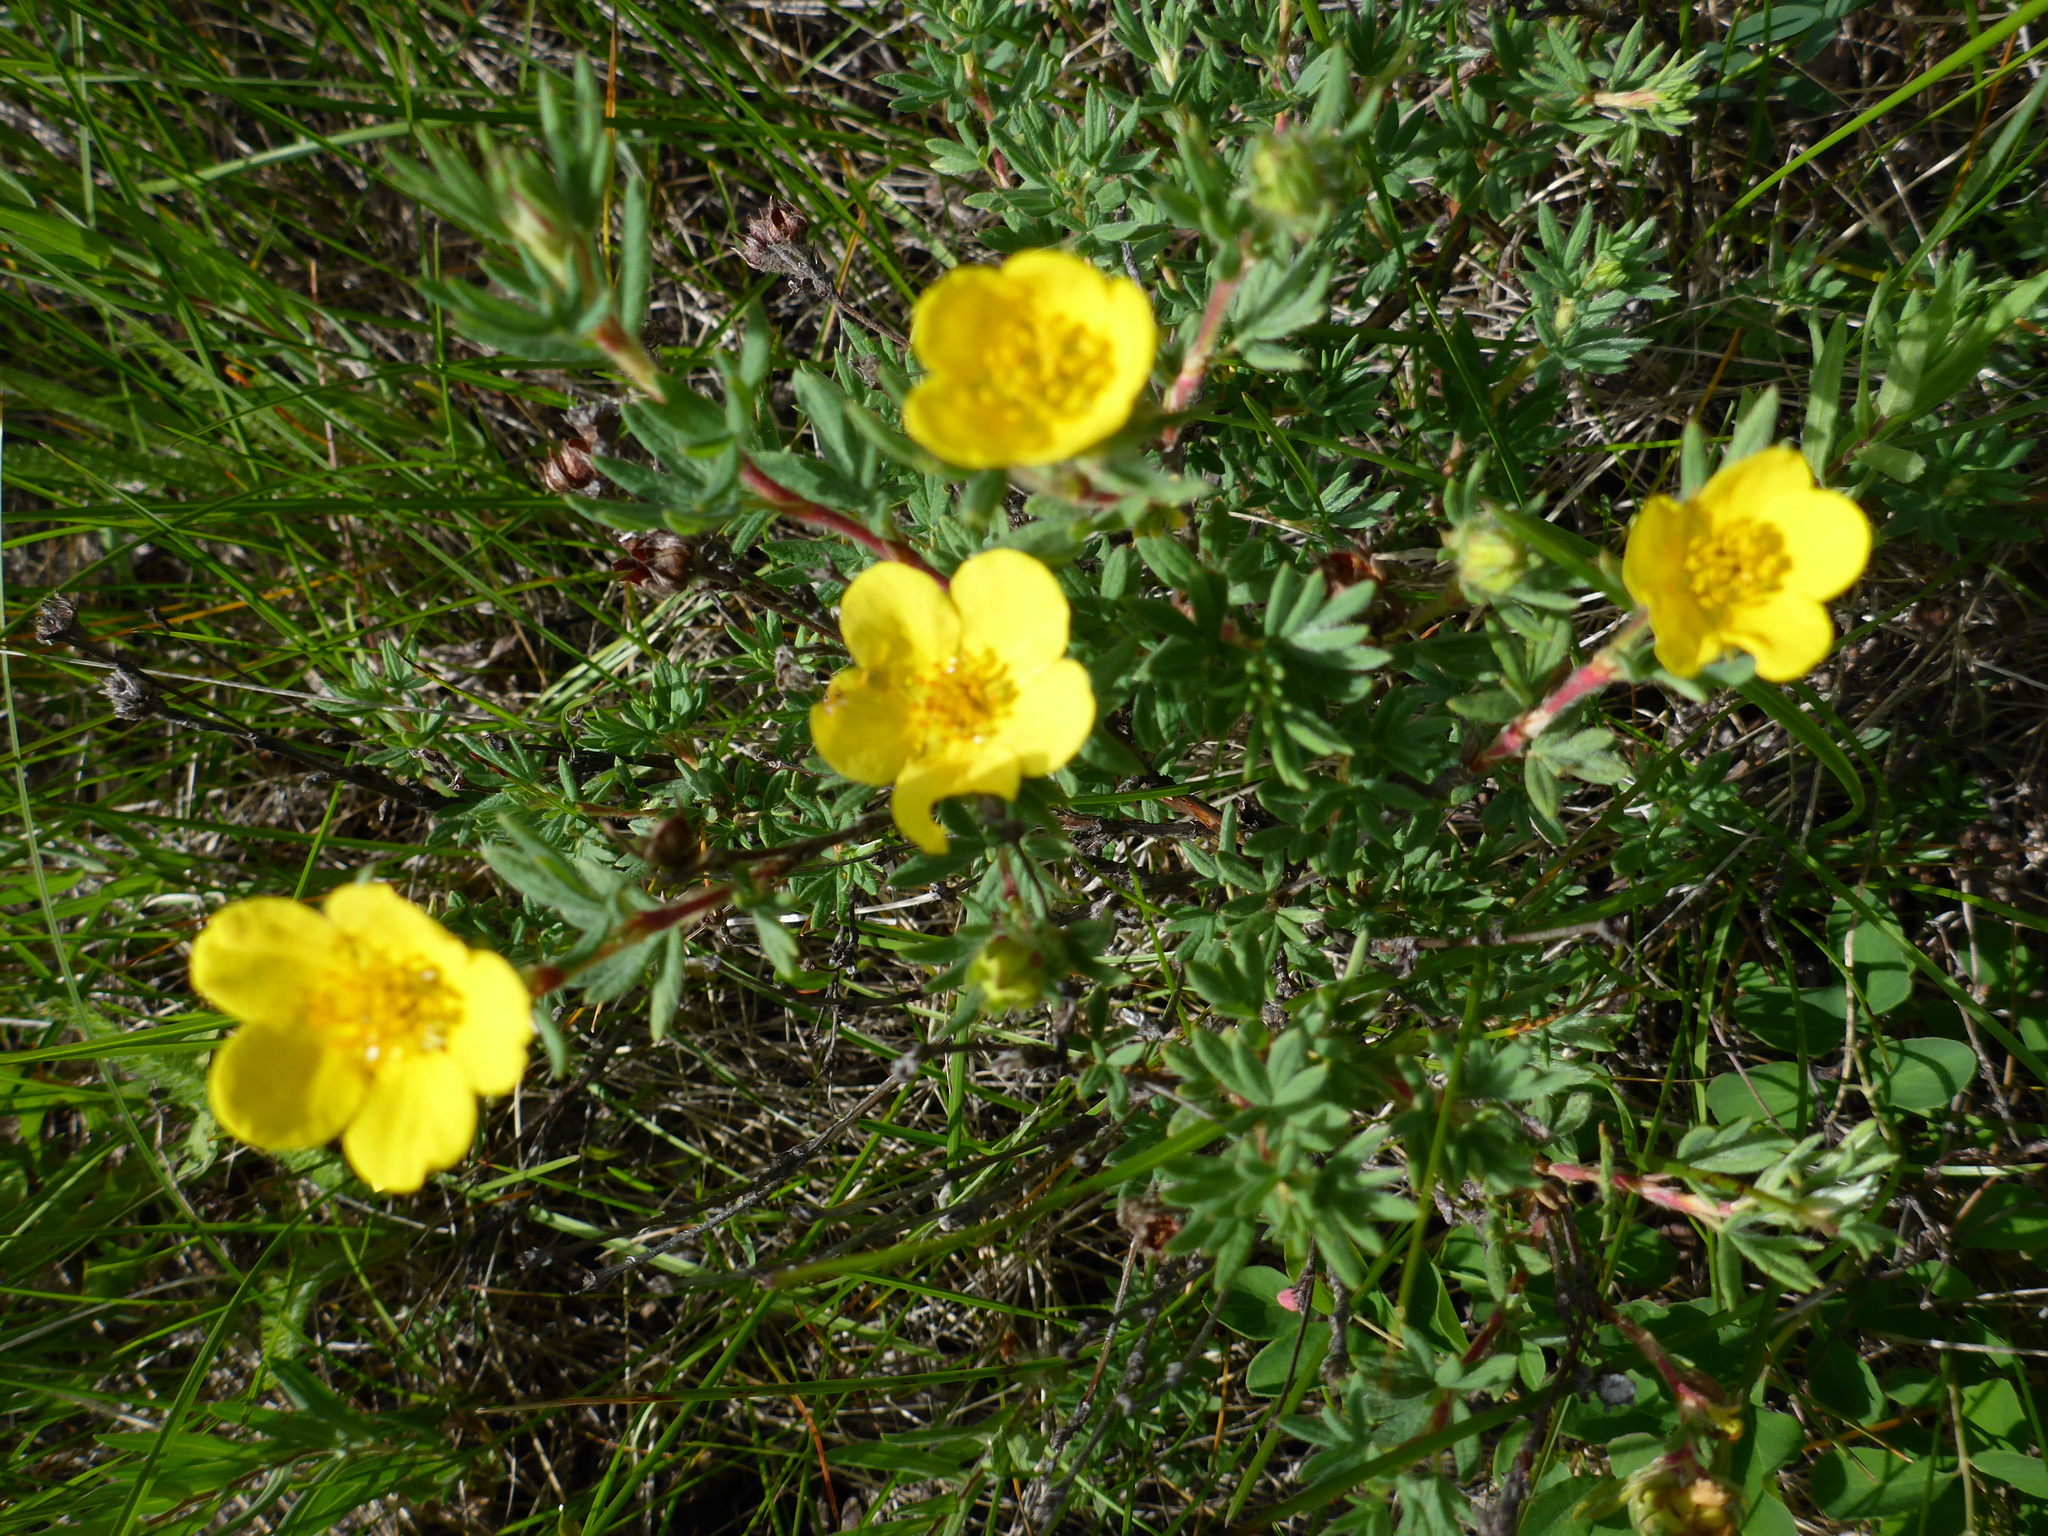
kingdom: Plantae
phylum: Tracheophyta
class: Magnoliopsida
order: Rosales
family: Rosaceae
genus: Potentilla
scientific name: Potentilla glaucophylla
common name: Blue-leaved cinquefoil
